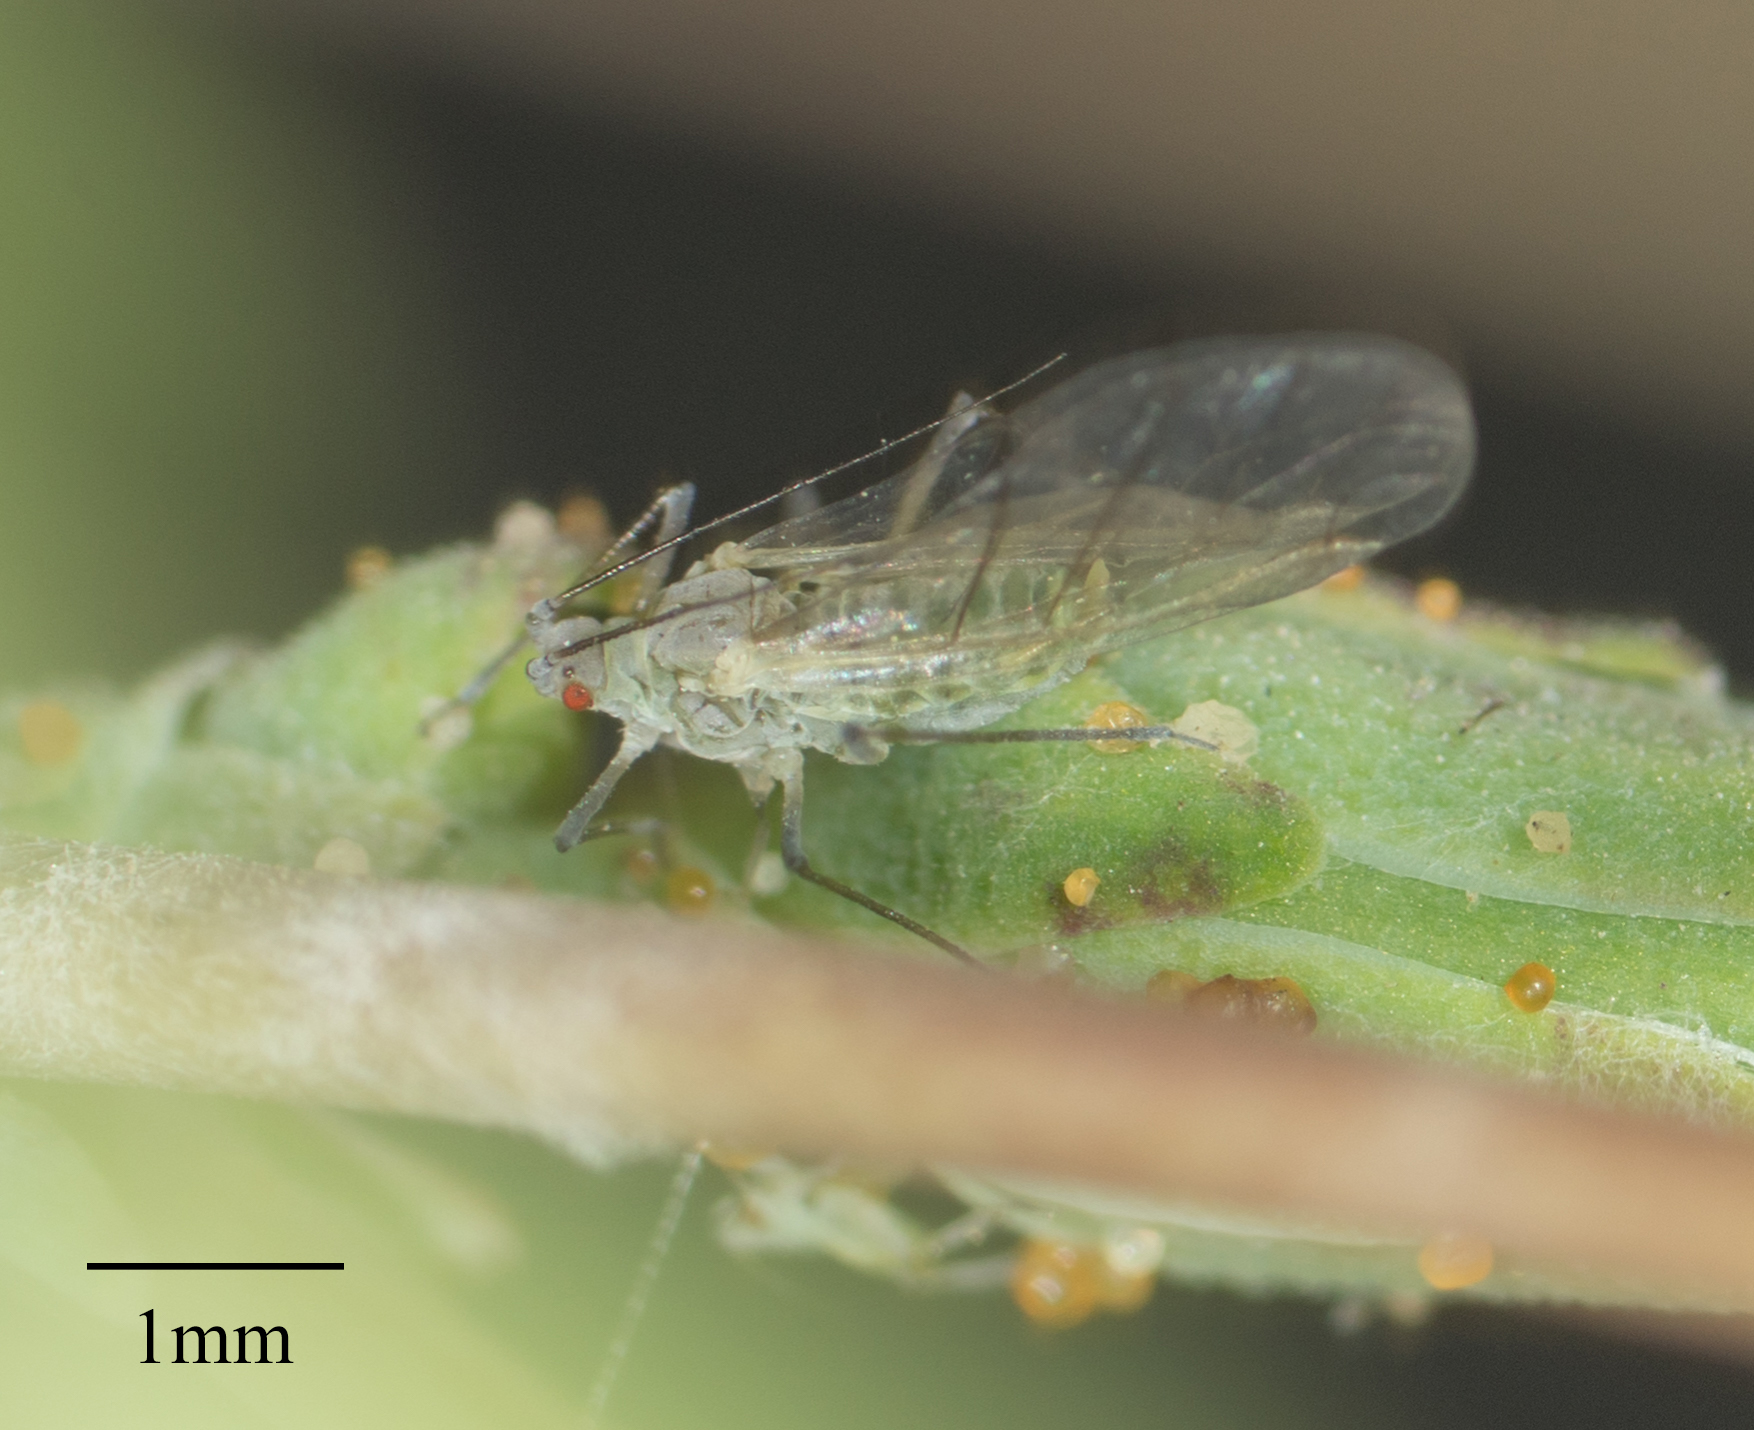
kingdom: Animalia
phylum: Arthropoda
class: Insecta
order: Hemiptera
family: Aphididae
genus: Acyrthosiphon
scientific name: Acyrthosiphon lactucae
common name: Aphid
